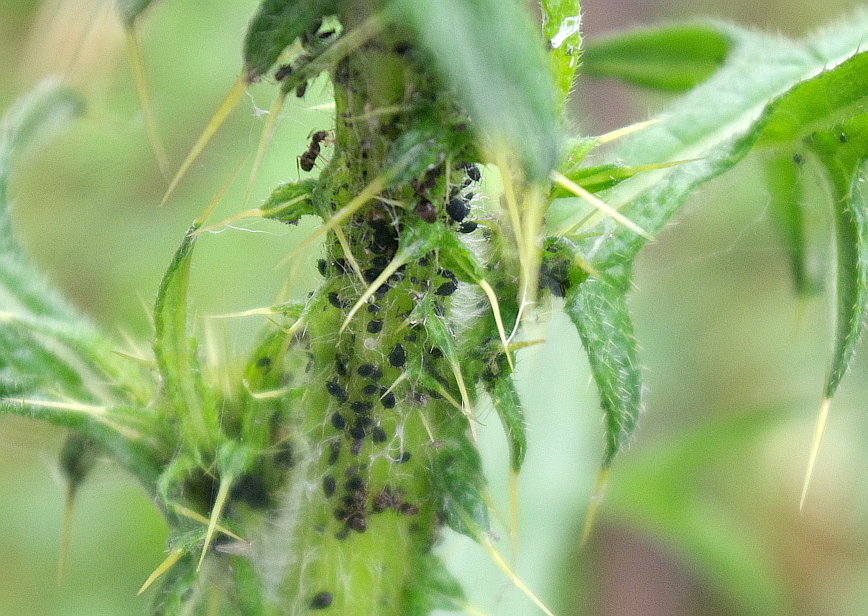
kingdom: Plantae
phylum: Tracheophyta
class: Magnoliopsida
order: Asterales
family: Asteraceae
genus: Cirsium
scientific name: Cirsium vulgare
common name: Bull thistle
